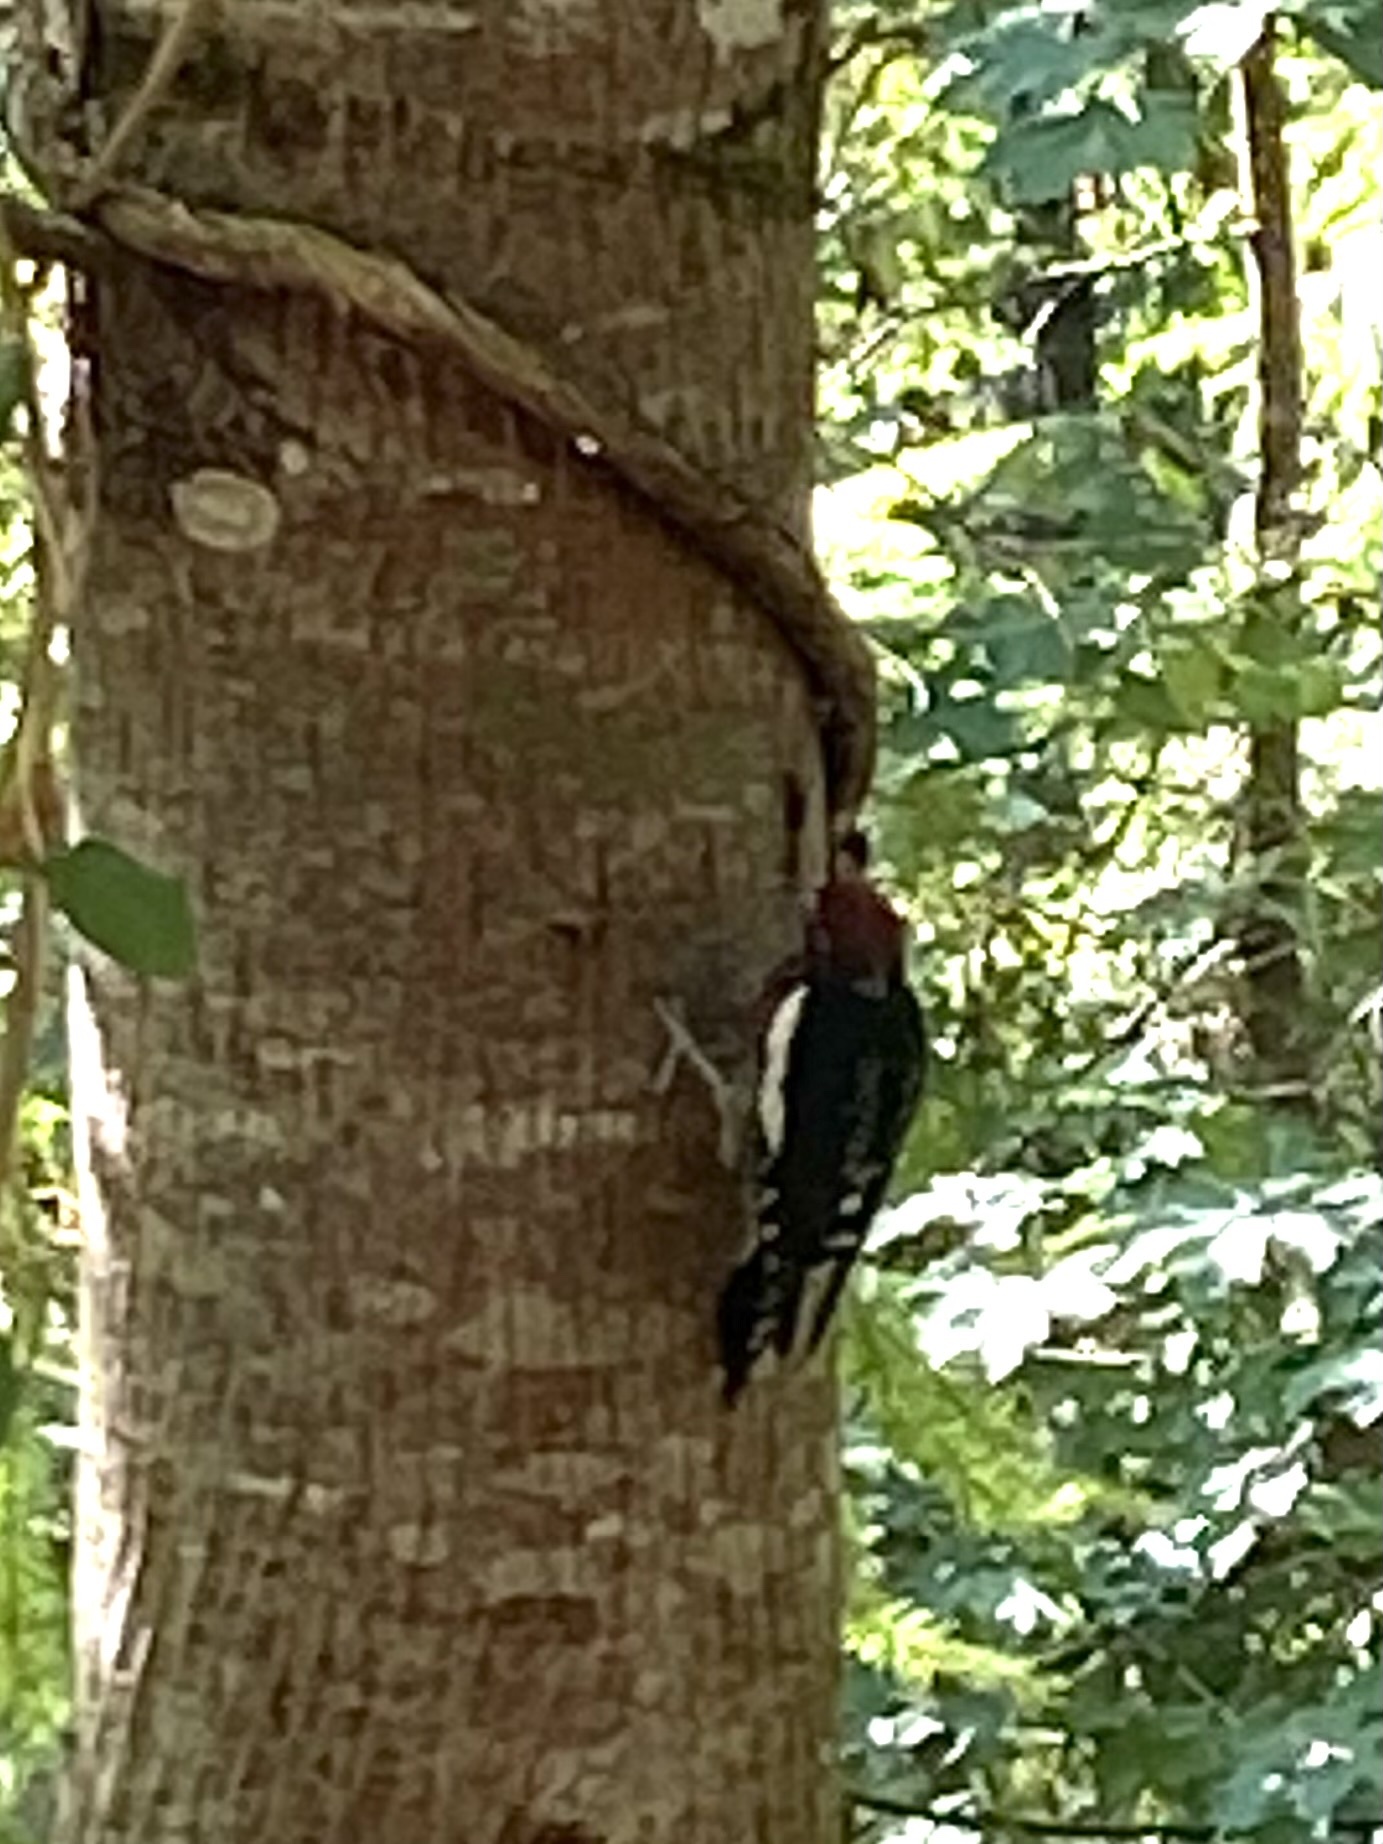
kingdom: Animalia
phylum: Chordata
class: Aves
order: Piciformes
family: Picidae
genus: Sphyrapicus
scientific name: Sphyrapicus ruber
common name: Red-breasted sapsucker
